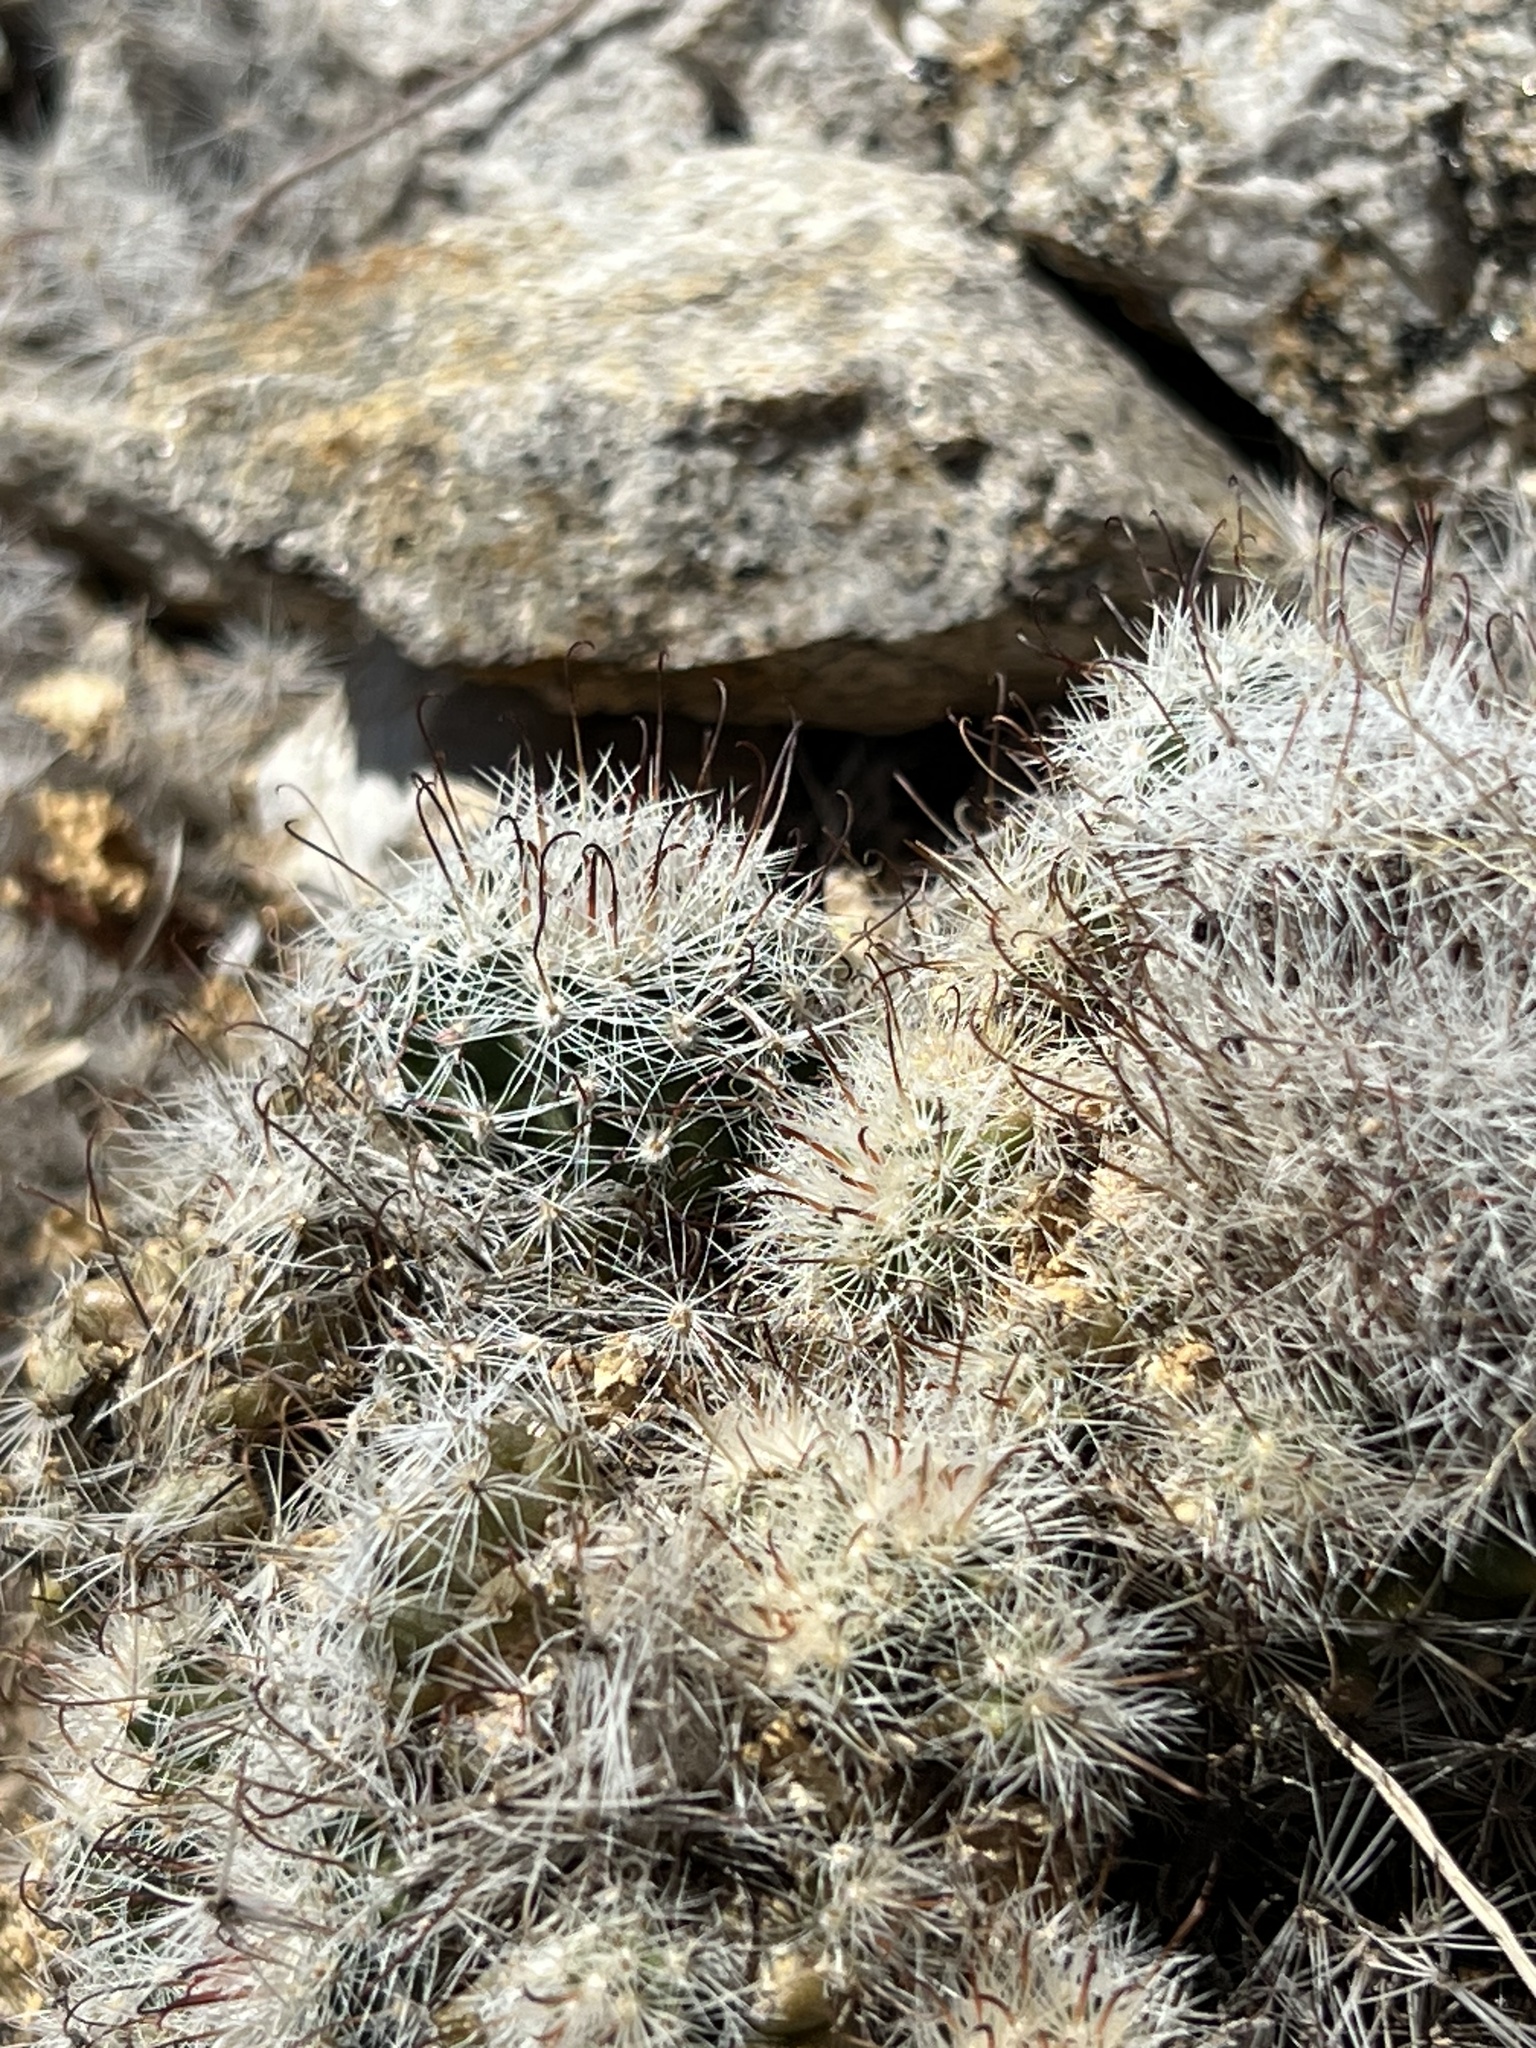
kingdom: Plantae
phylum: Tracheophyta
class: Magnoliopsida
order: Caryophyllales
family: Cactaceae
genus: Cochemiea
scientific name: Cochemiea grahamii
